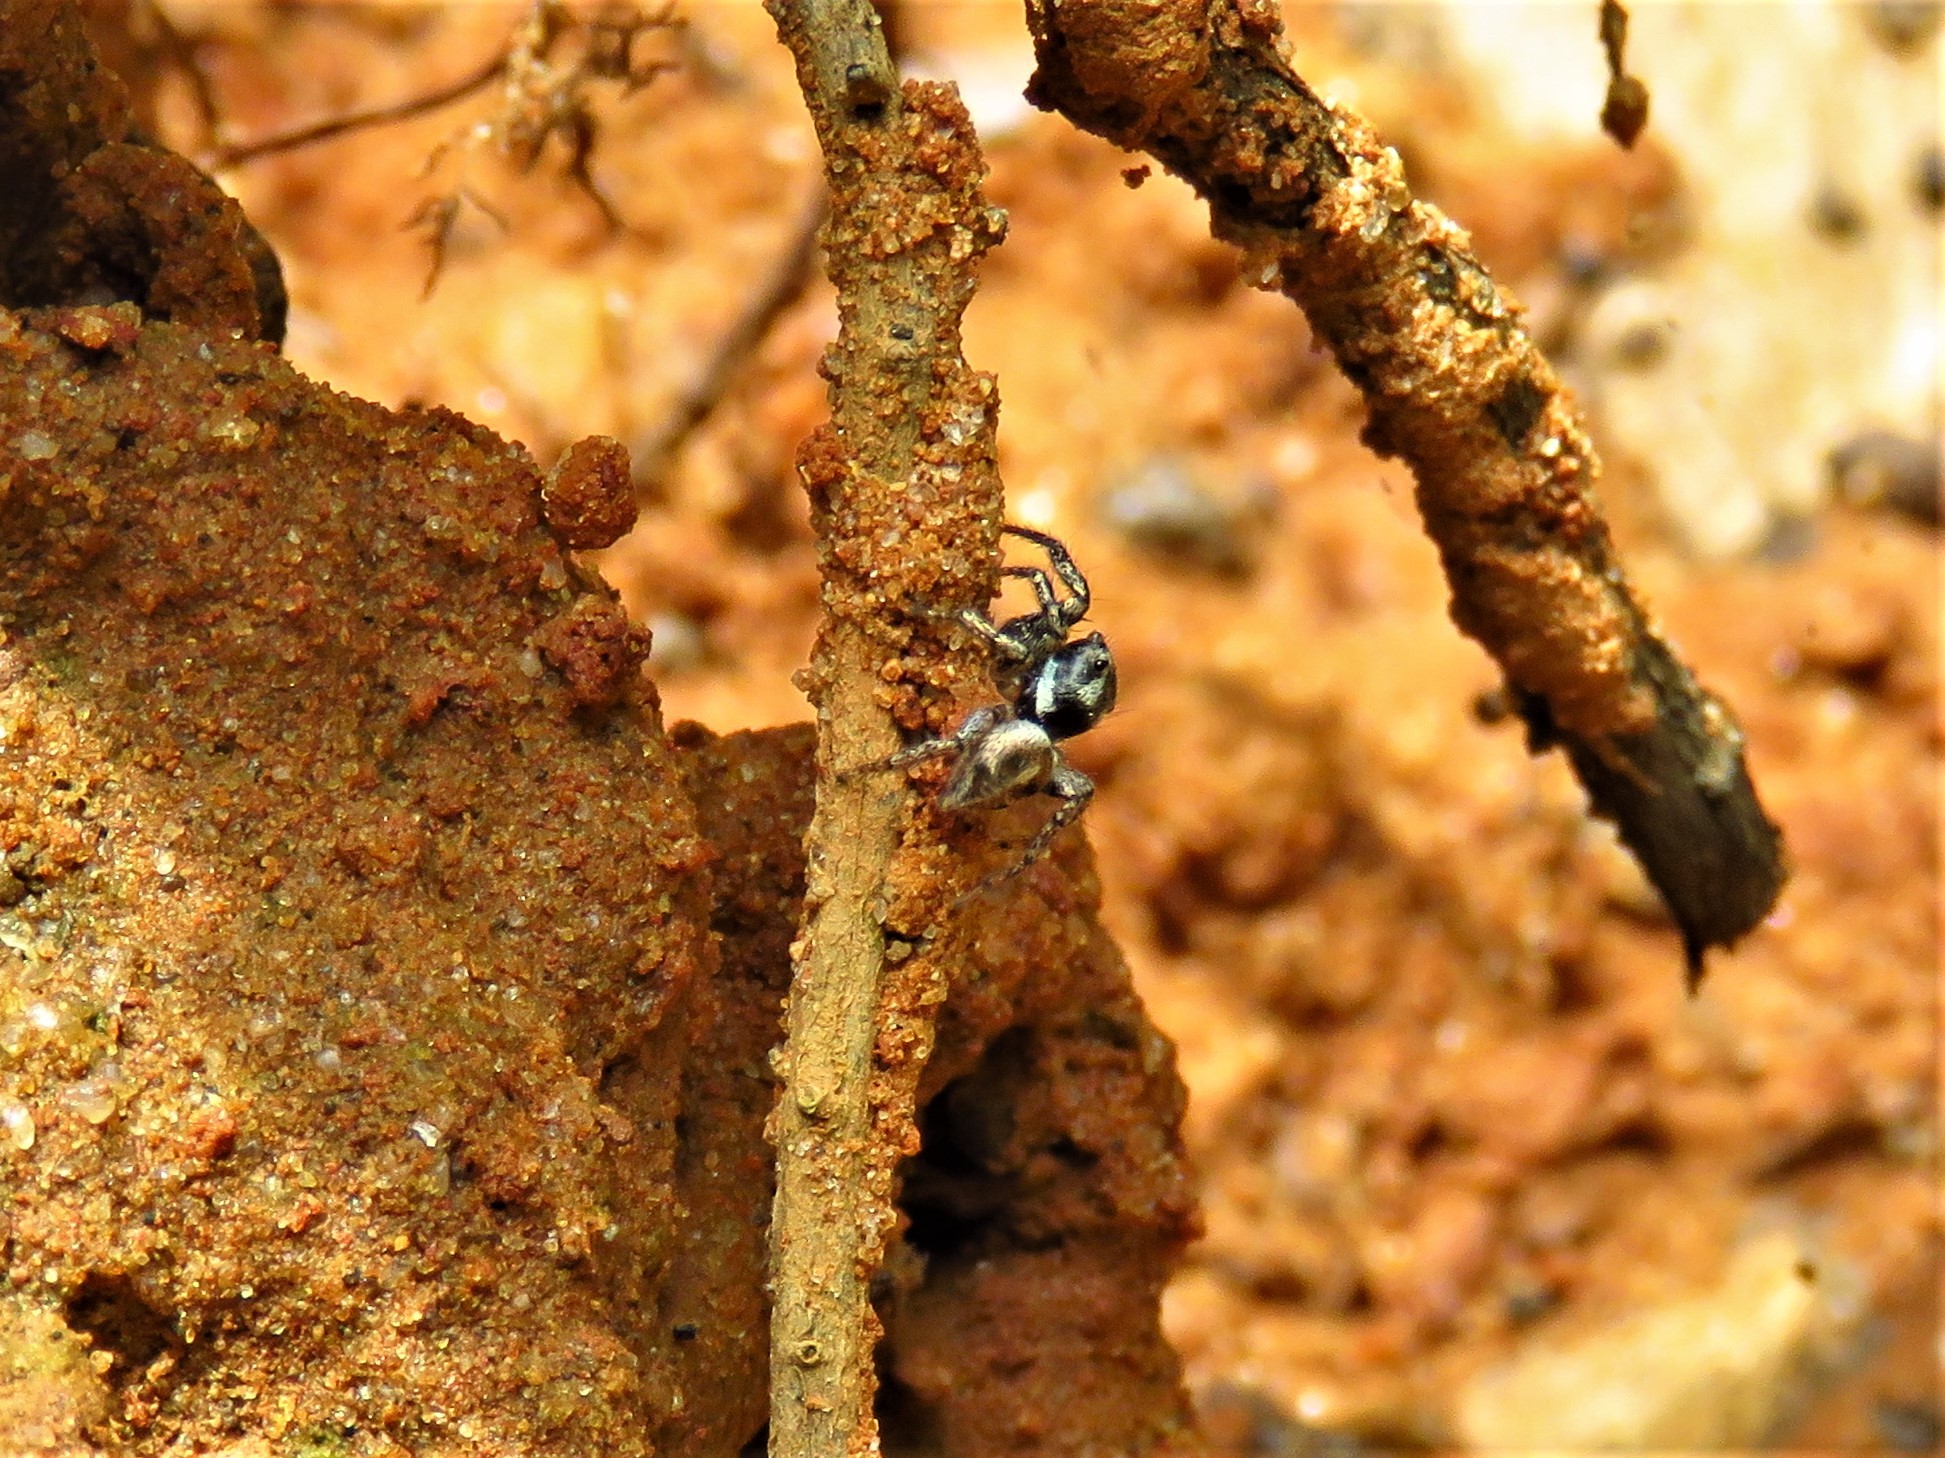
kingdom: Animalia
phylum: Arthropoda
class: Arachnida
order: Araneae
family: Salticidae
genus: Anasaitis
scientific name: Anasaitis canosa
